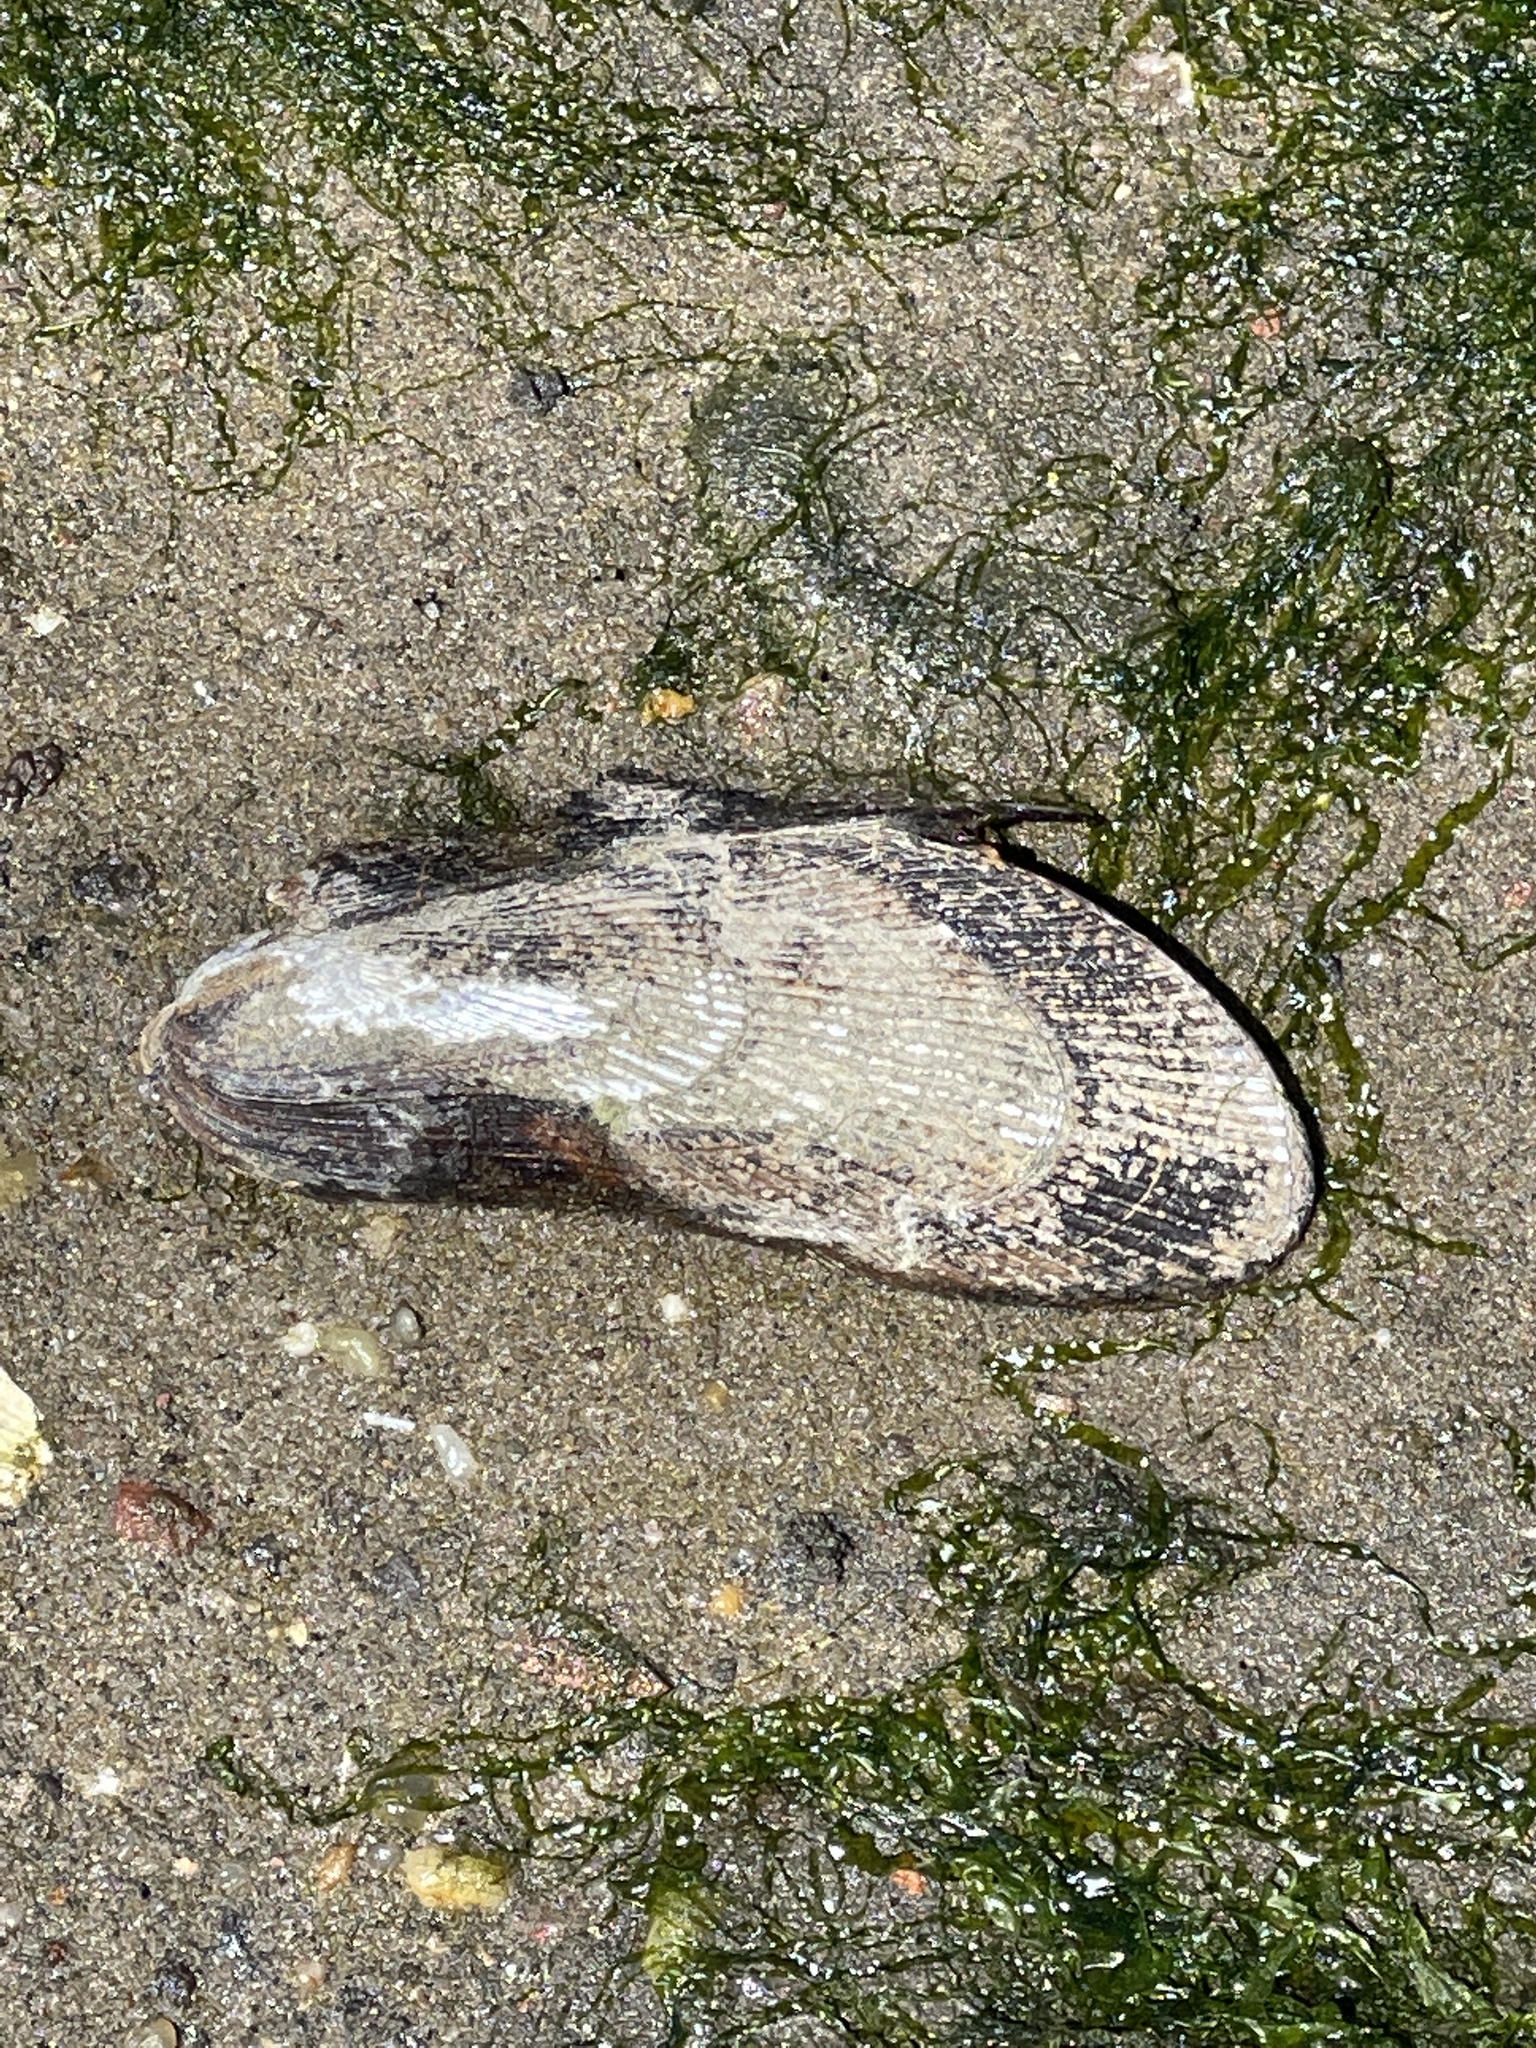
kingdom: Animalia
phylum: Mollusca
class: Bivalvia
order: Mytilida
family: Mytilidae
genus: Geukensia
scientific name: Geukensia demissa
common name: Ribbed mussel
